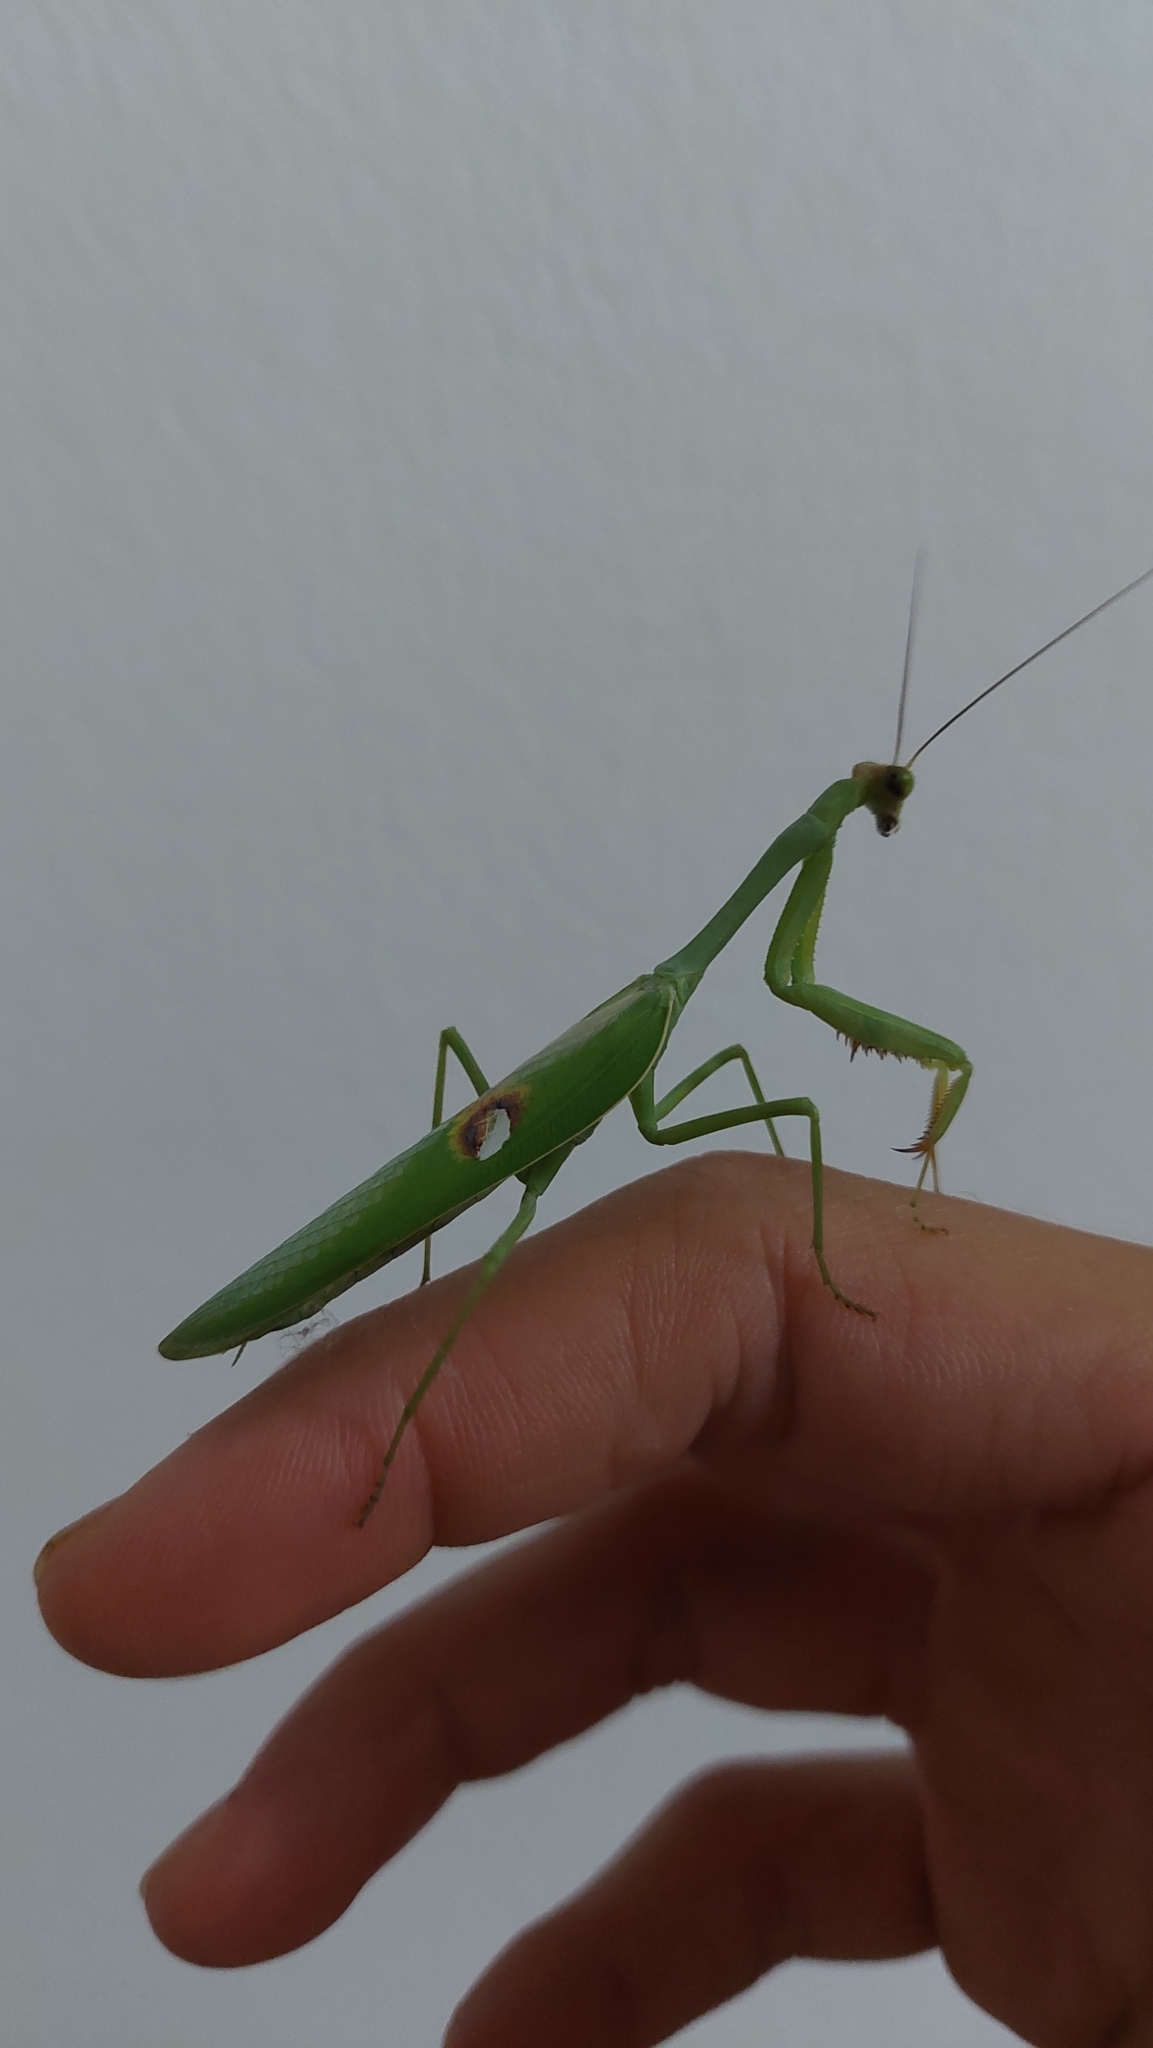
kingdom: Animalia
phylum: Arthropoda
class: Insecta
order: Mantodea
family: Mantidae
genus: Stagmatoptera
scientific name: Stagmatoptera hyaloptera
